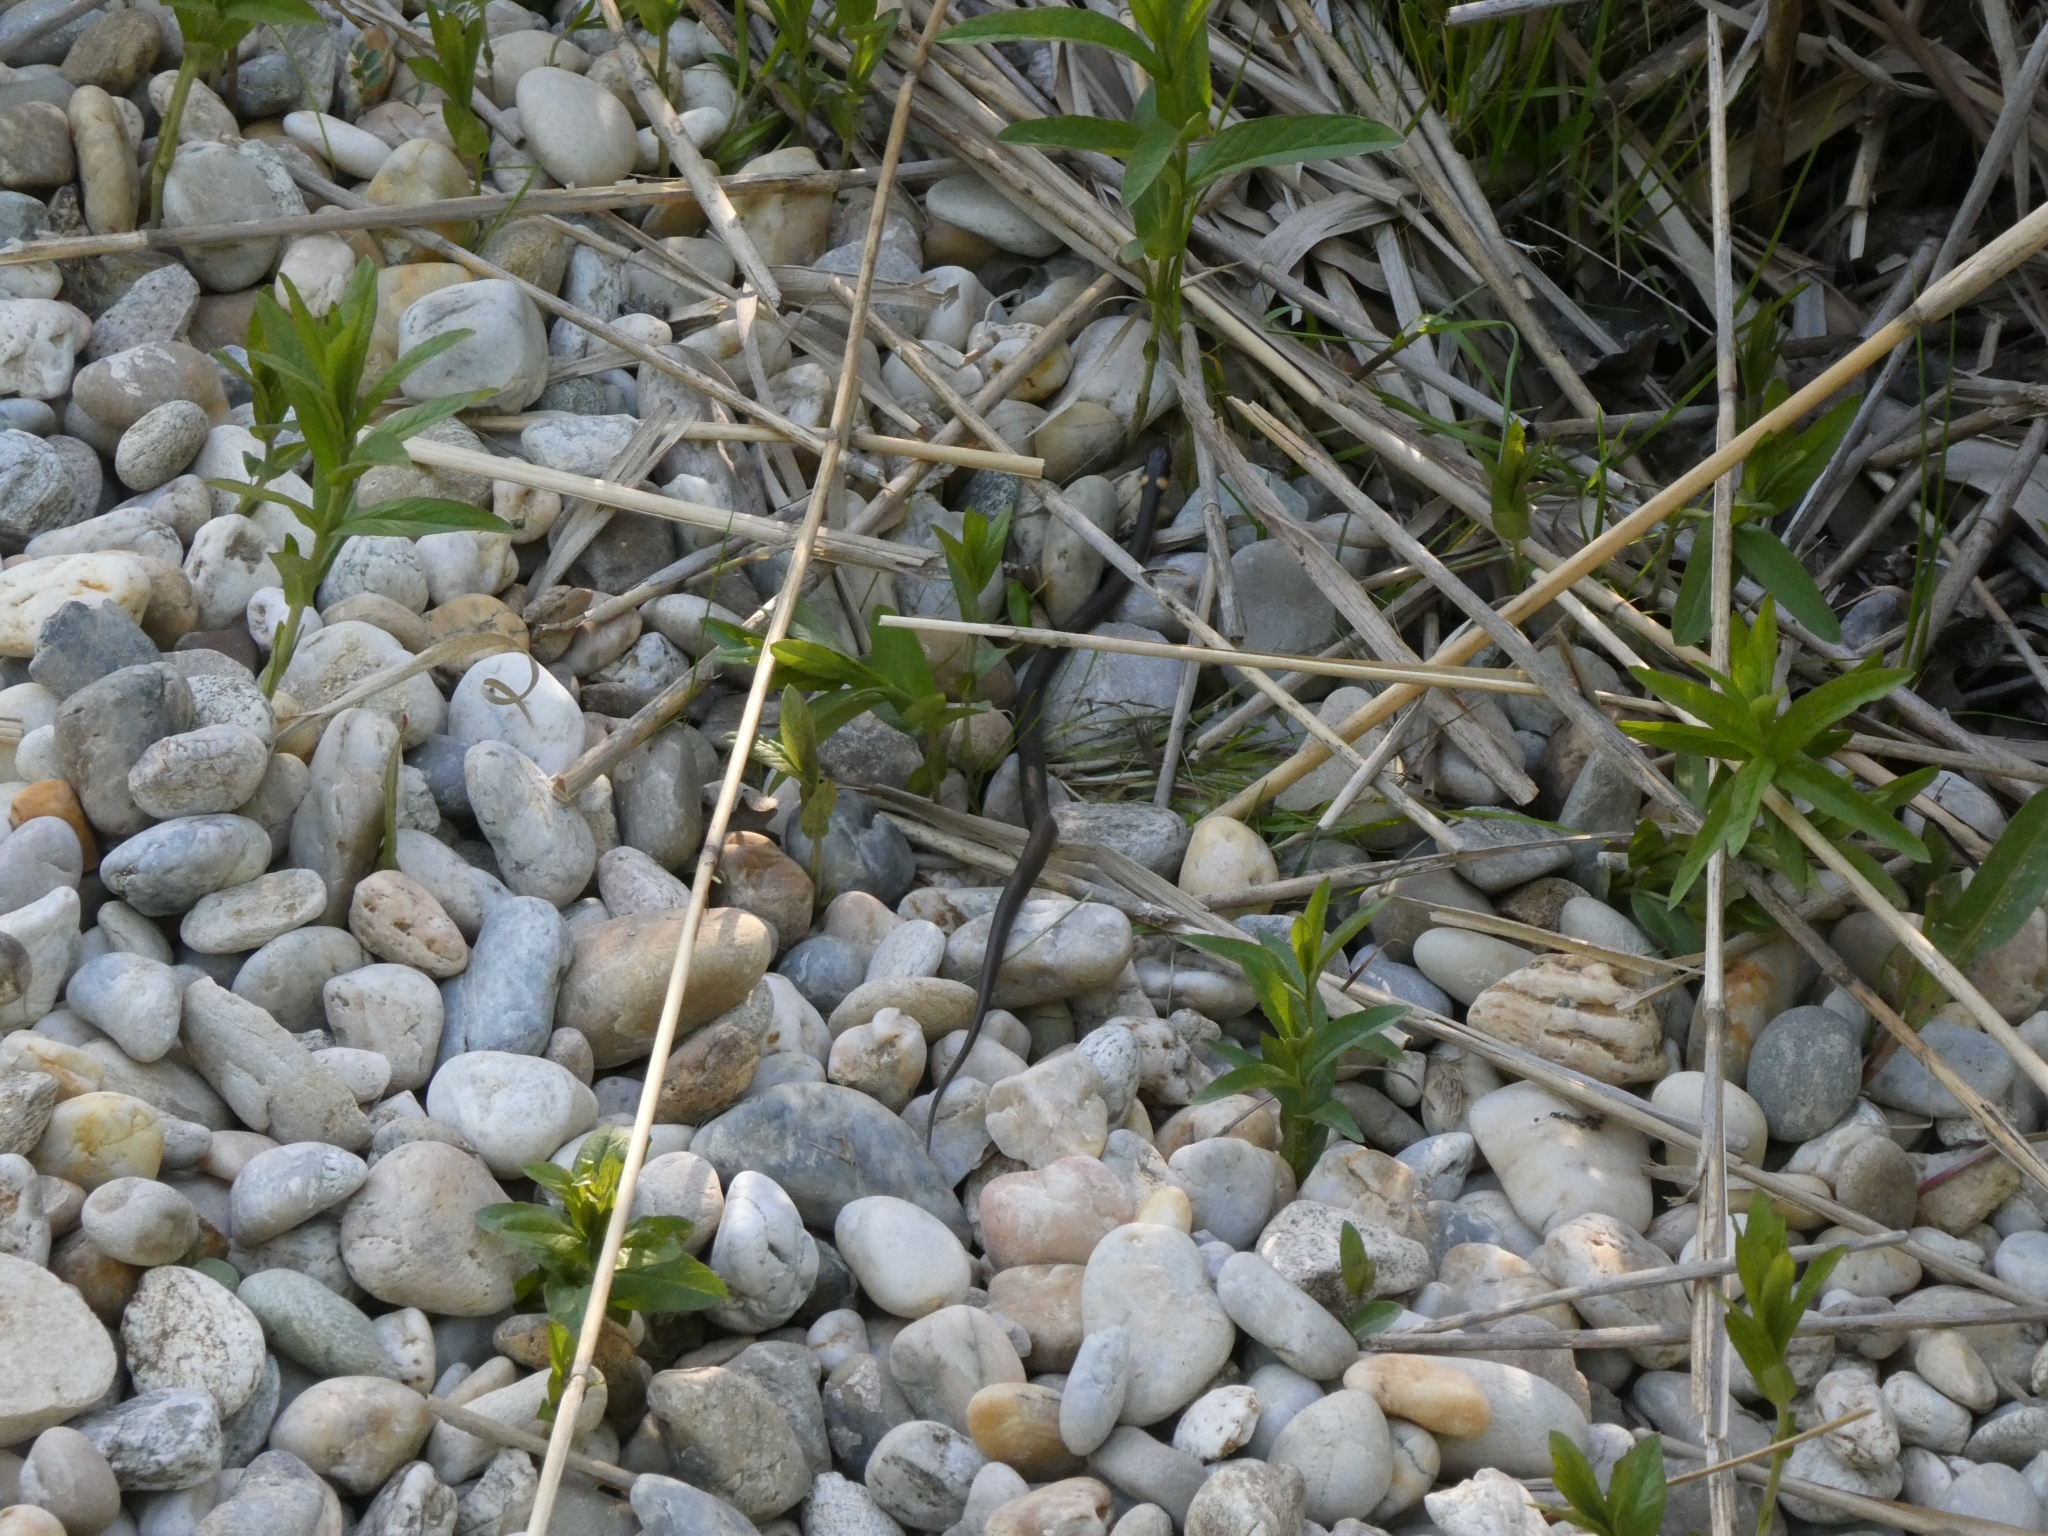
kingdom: Animalia
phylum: Chordata
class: Squamata
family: Colubridae
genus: Natrix
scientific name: Natrix natrix
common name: Grass snake
